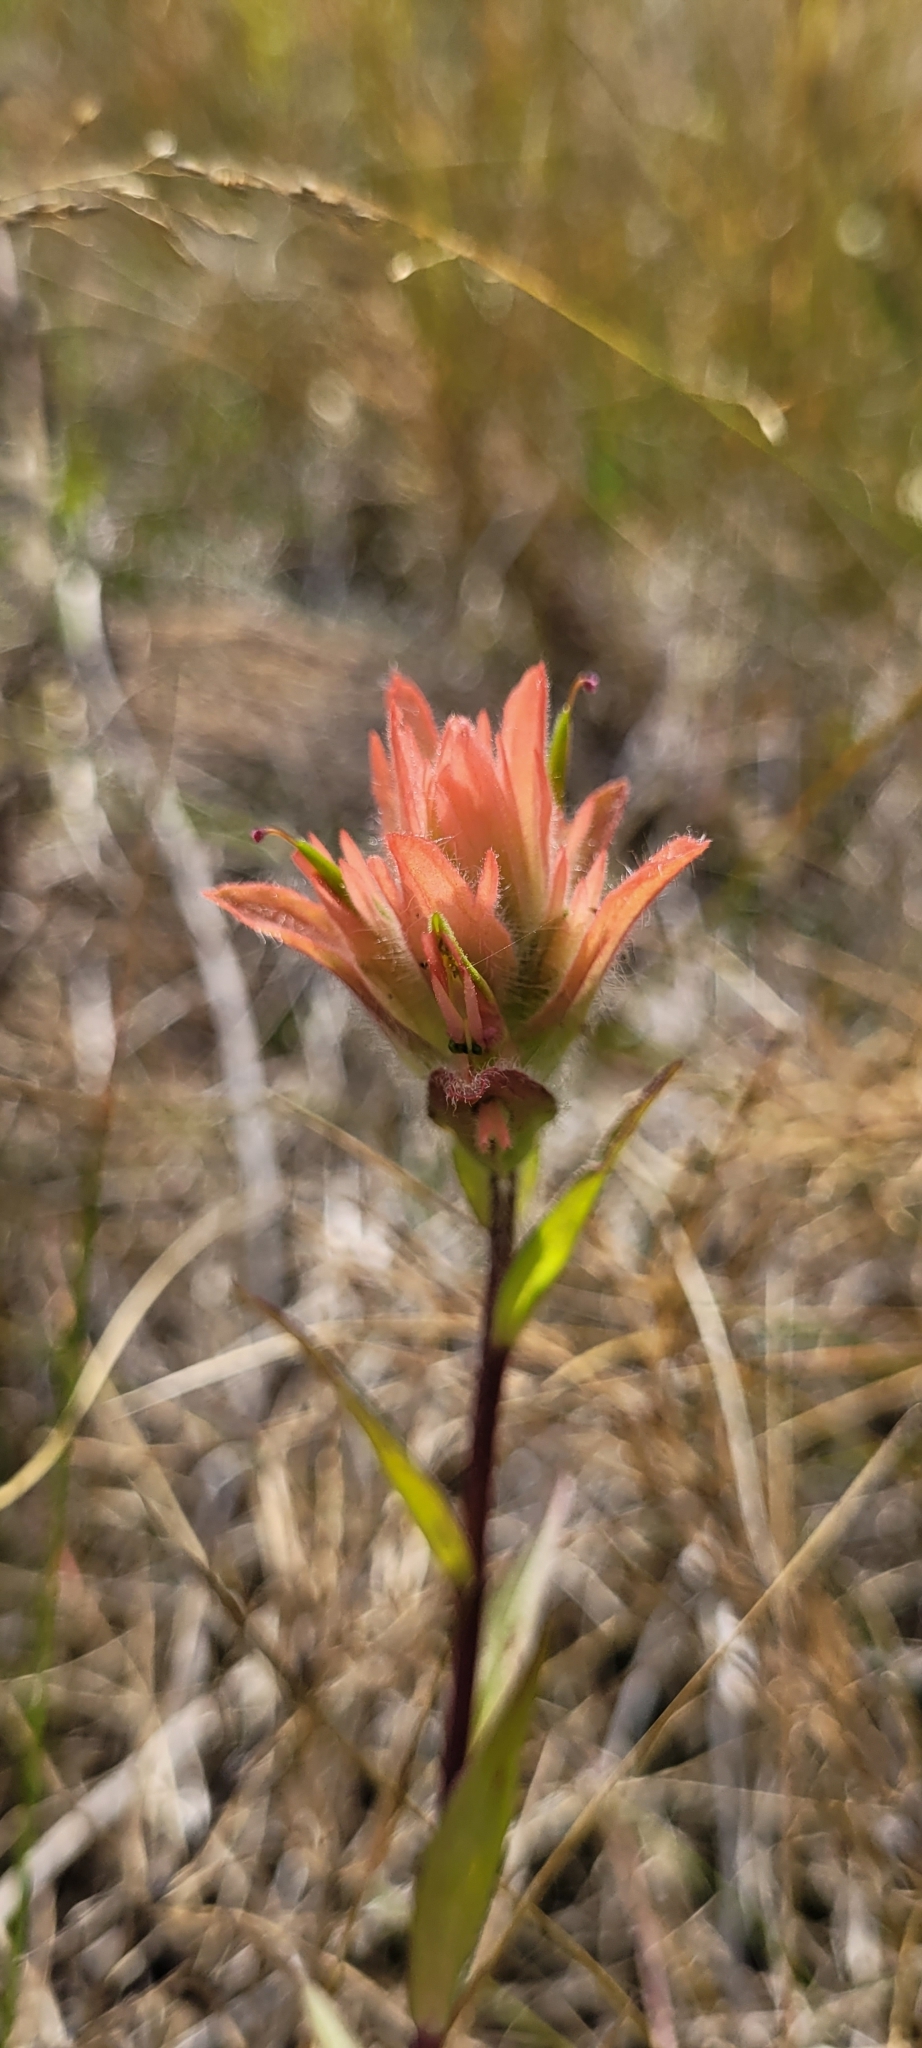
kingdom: Plantae
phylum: Tracheophyta
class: Magnoliopsida
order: Lamiales
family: Orobanchaceae
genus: Castilleja
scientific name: Castilleja miniata
